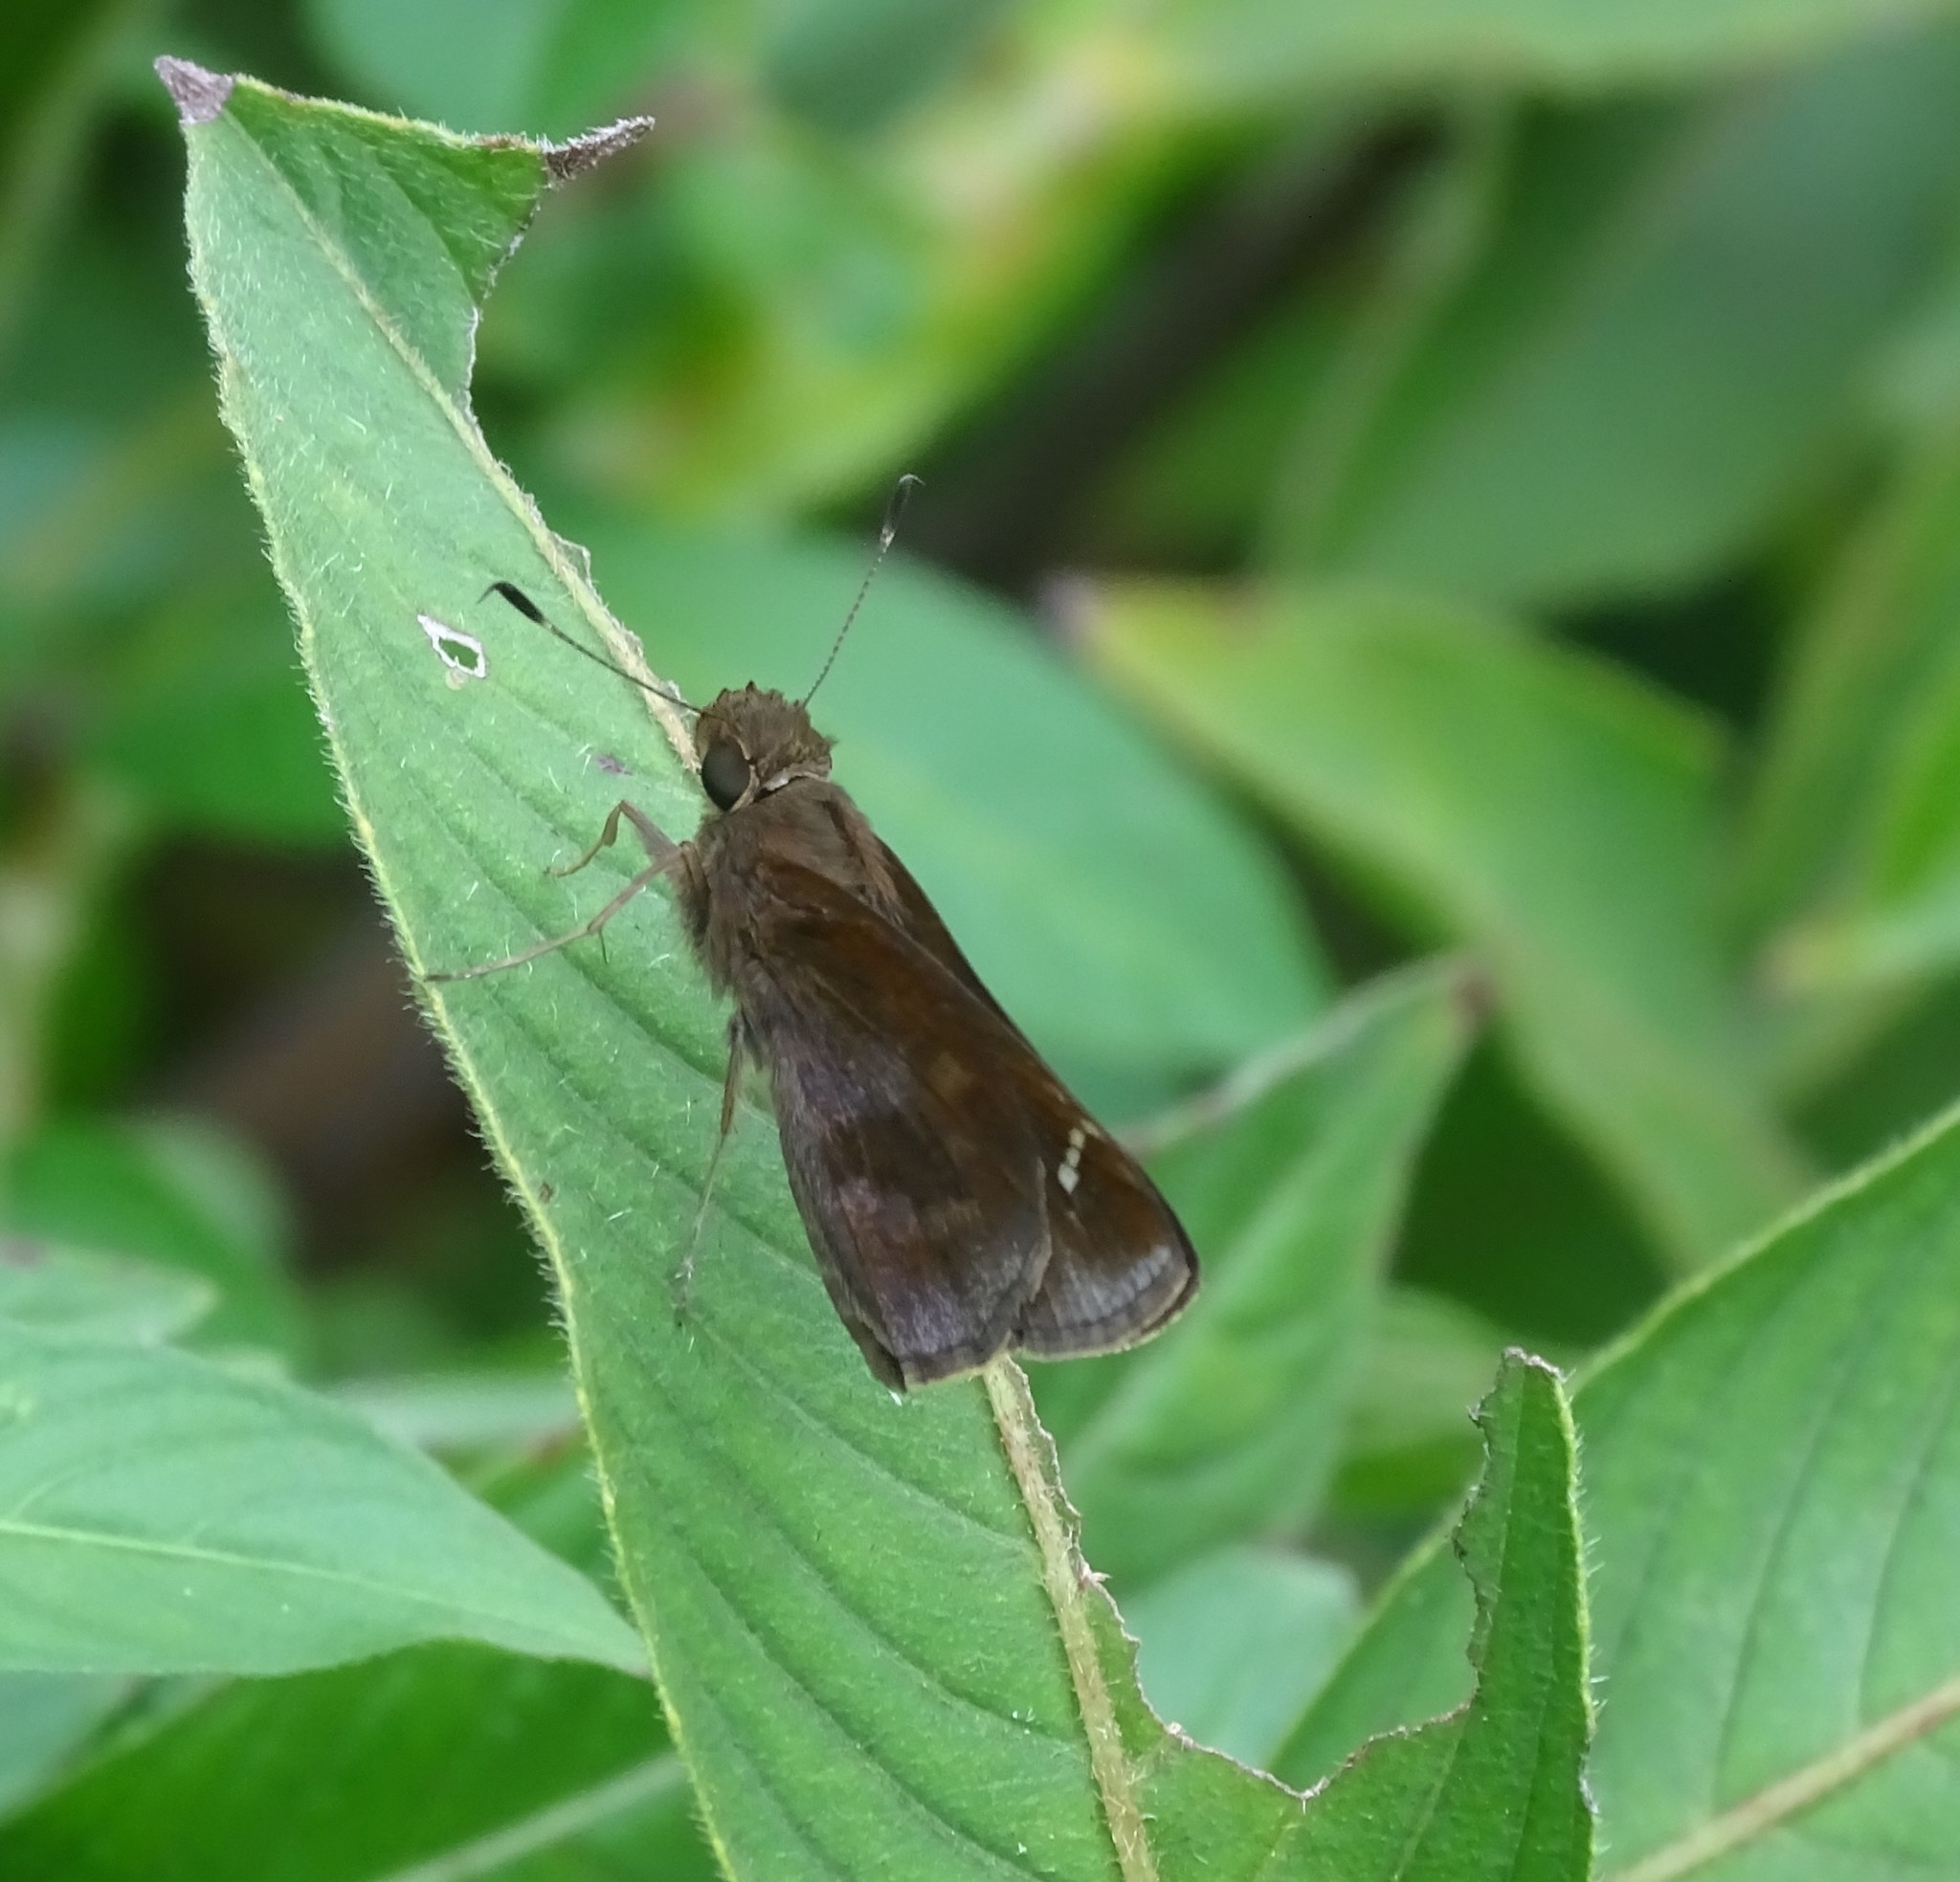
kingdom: Animalia
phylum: Arthropoda
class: Insecta
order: Lepidoptera
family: Hesperiidae
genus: Lerema
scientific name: Lerema accius
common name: Clouded skipper
